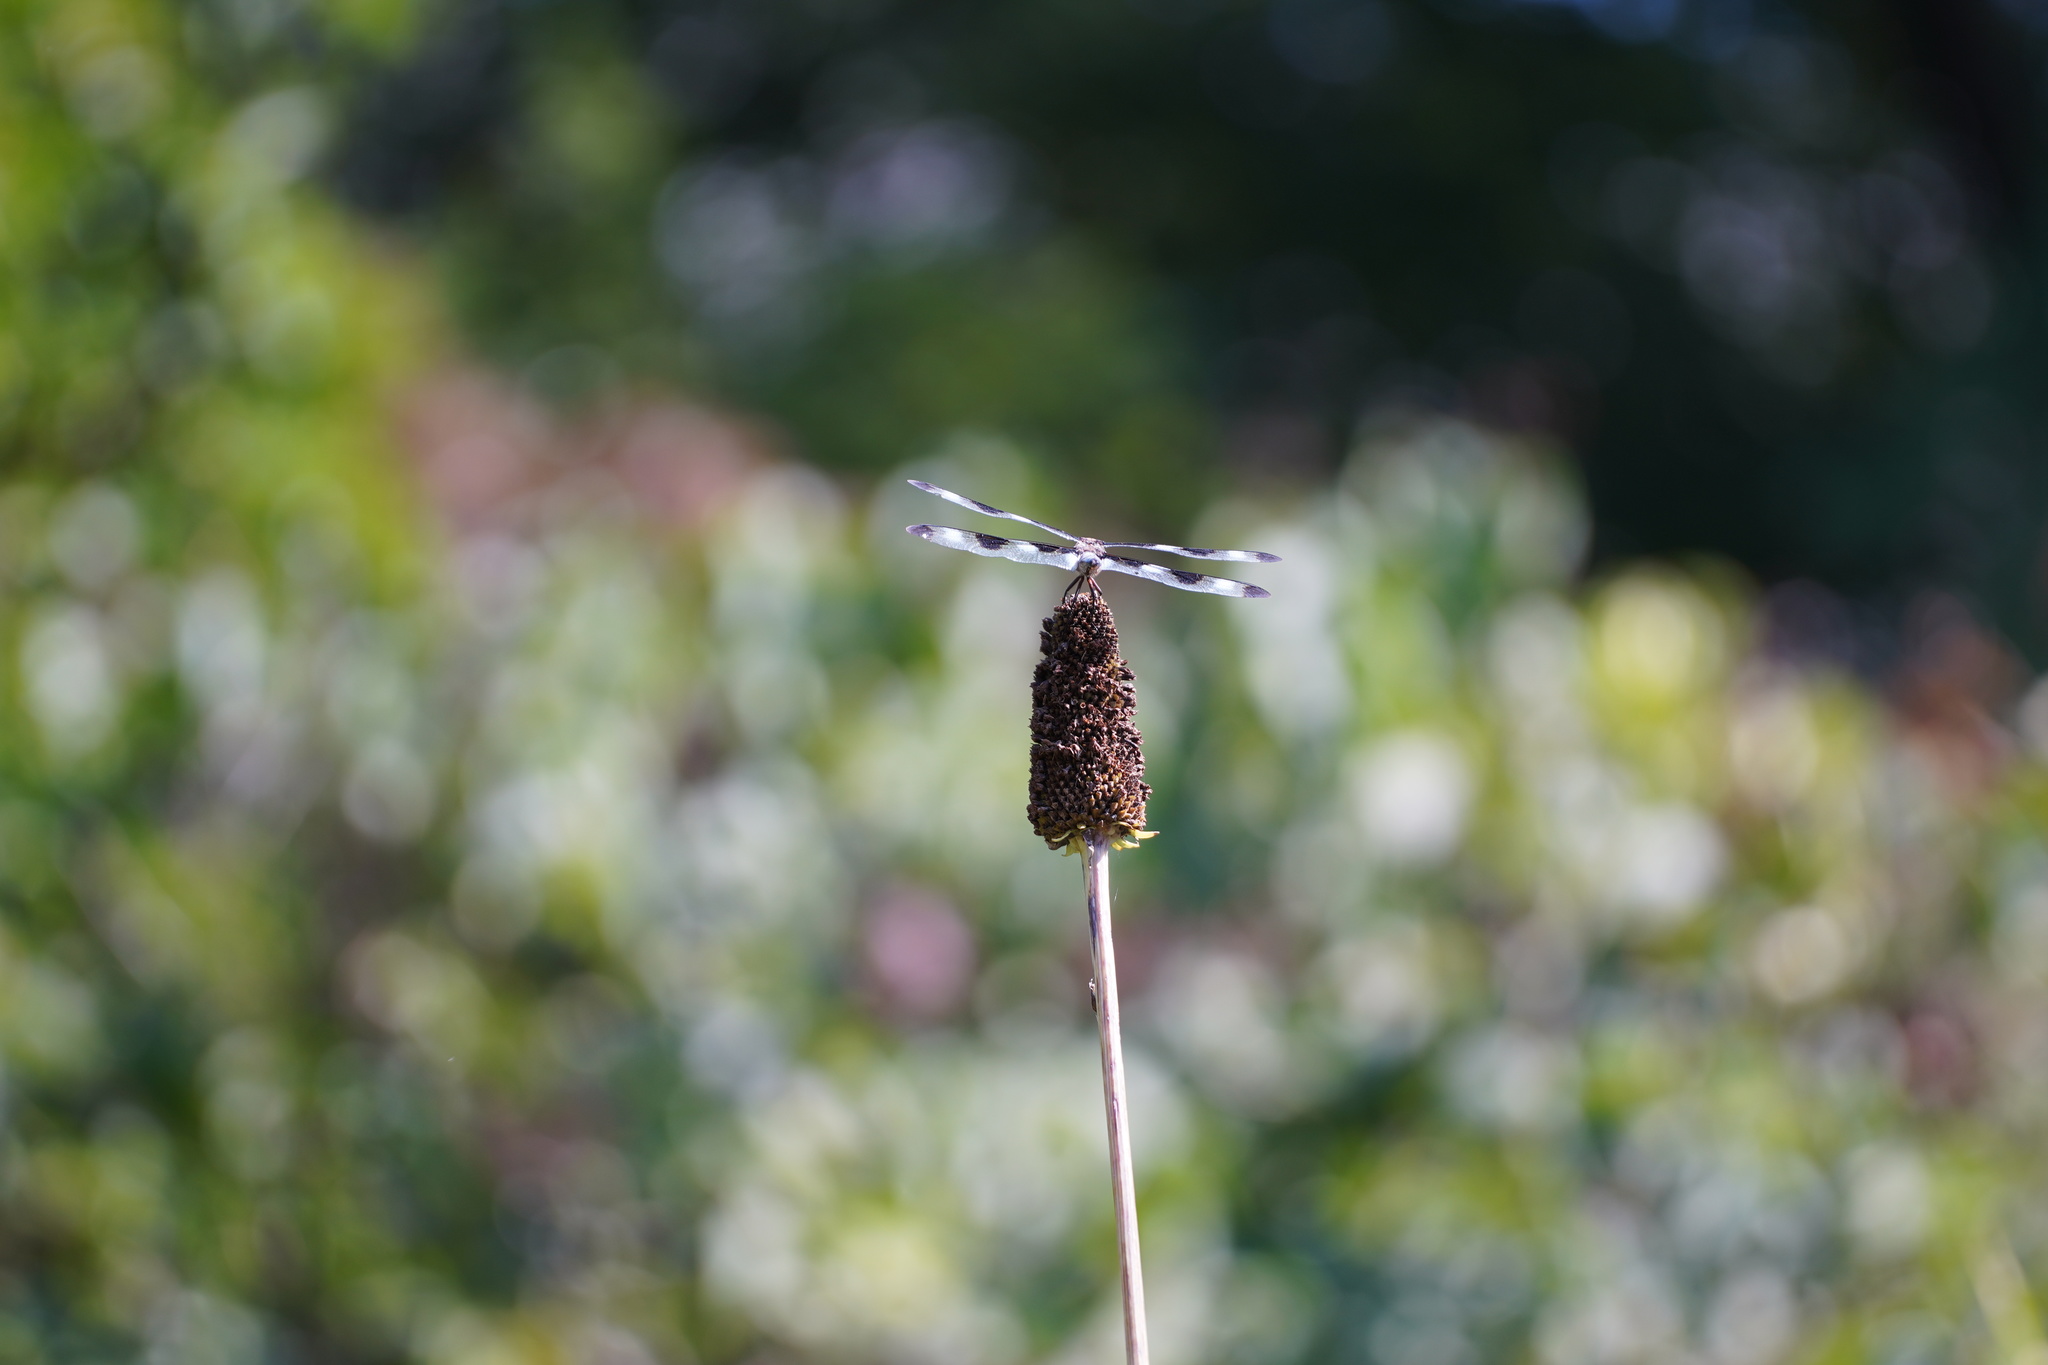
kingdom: Animalia
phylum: Arthropoda
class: Insecta
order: Odonata
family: Libellulidae
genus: Libellula
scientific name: Libellula pulchella
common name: Twelve-spotted skimmer
